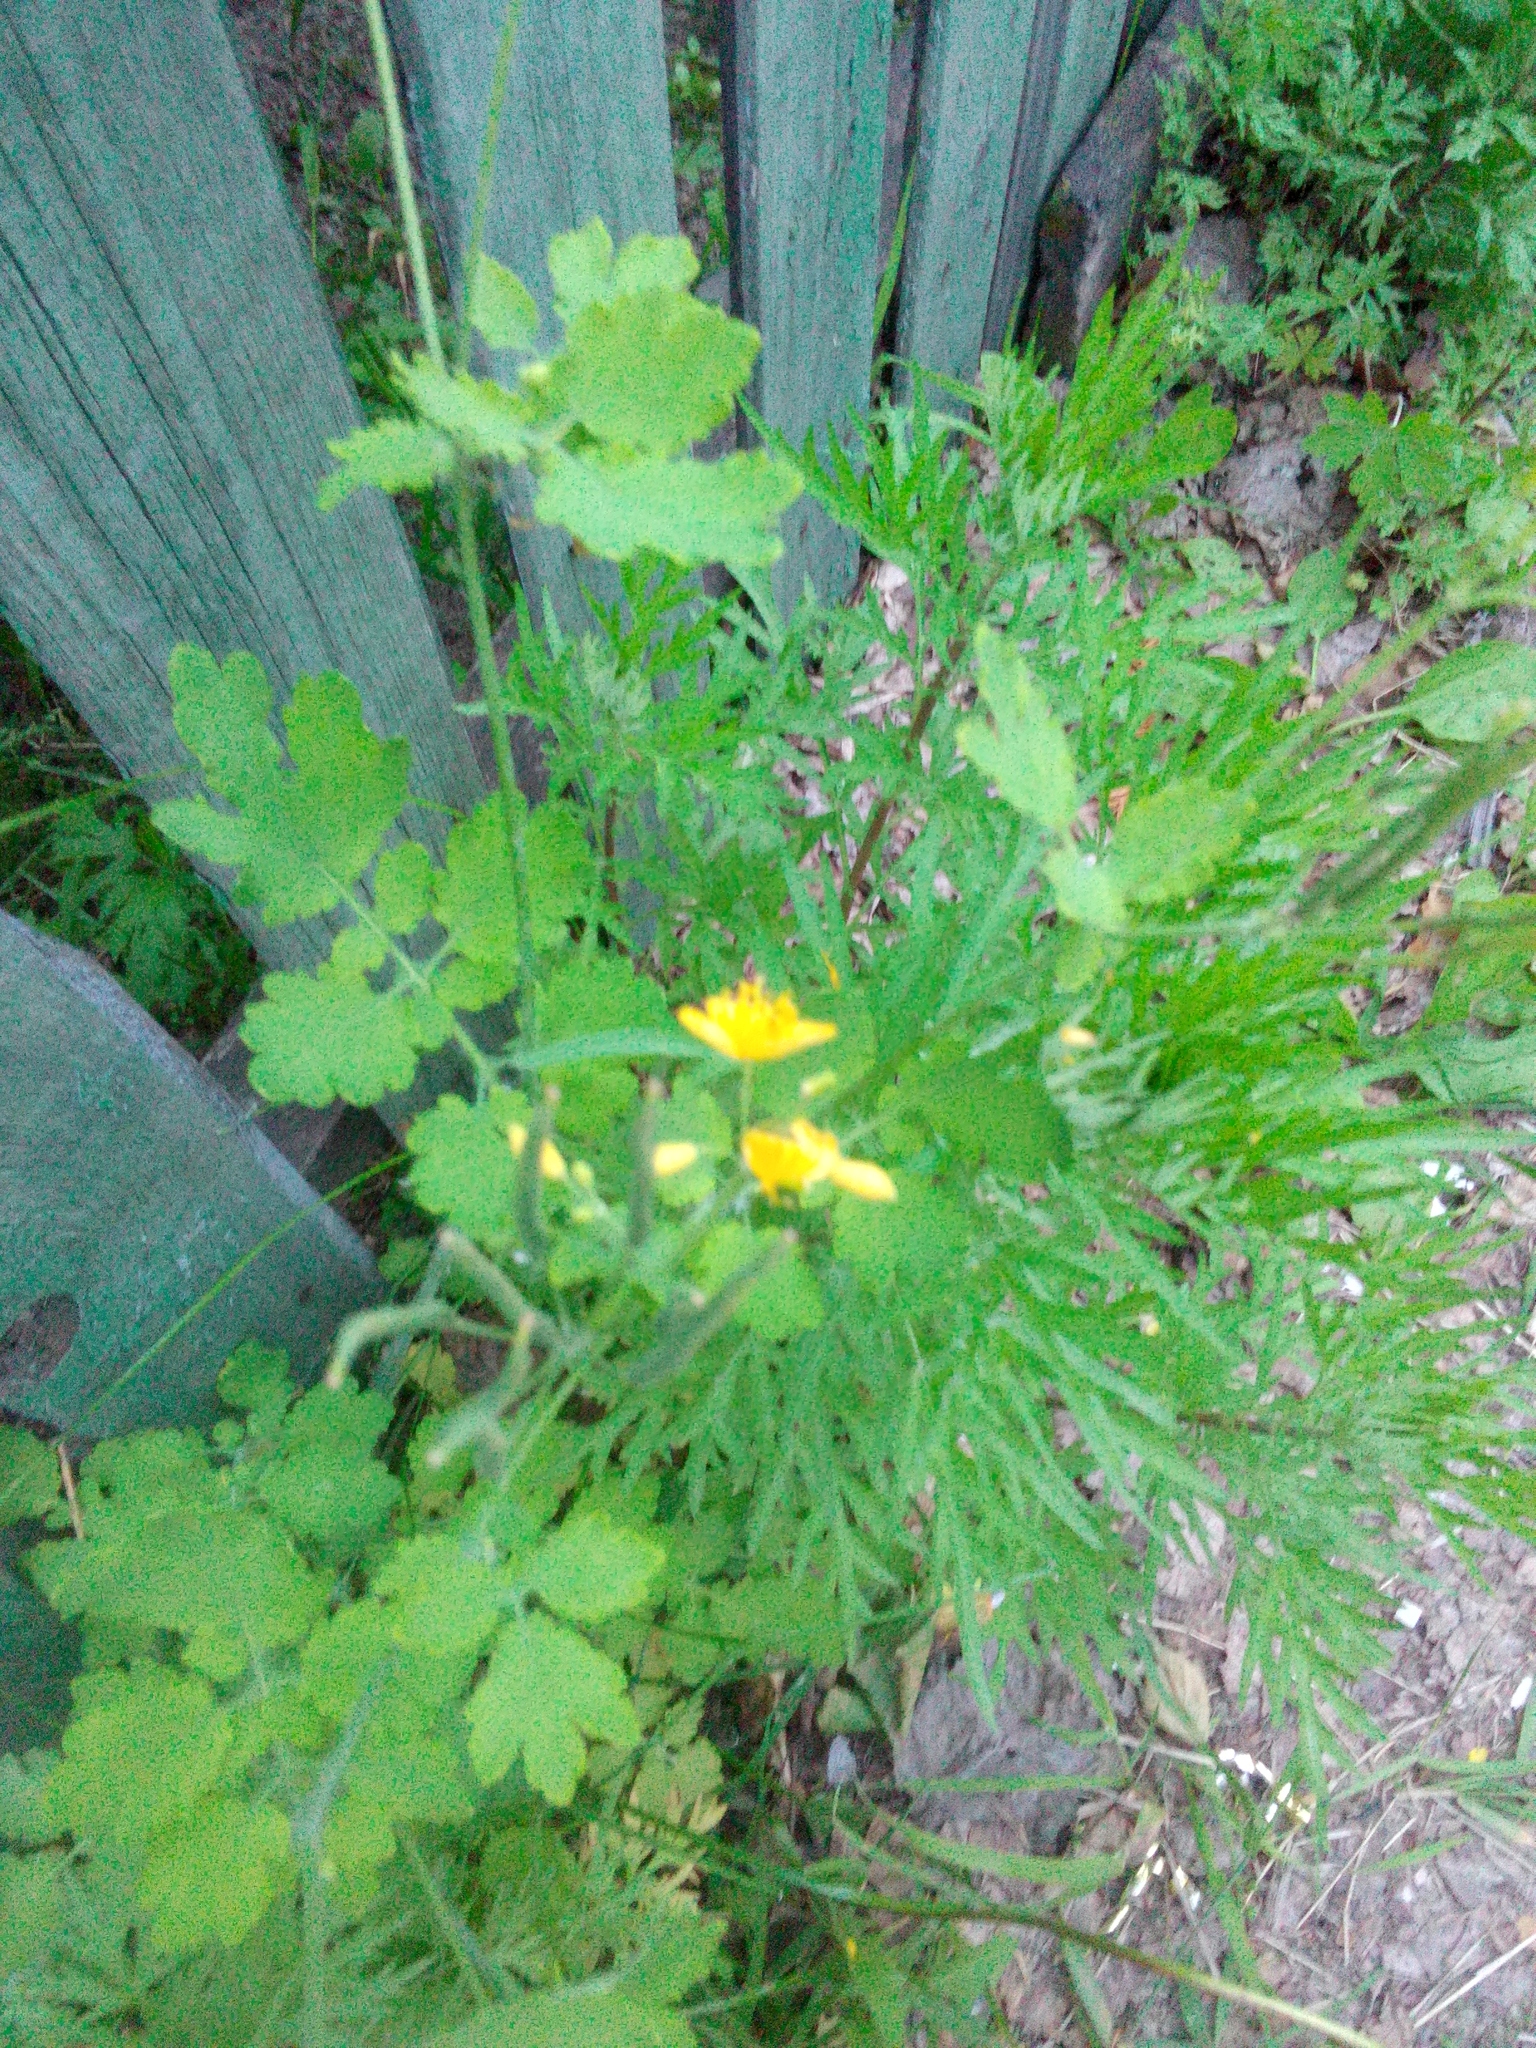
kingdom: Plantae
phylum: Tracheophyta
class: Magnoliopsida
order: Ranunculales
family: Papaveraceae
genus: Chelidonium
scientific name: Chelidonium majus
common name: Greater celandine
